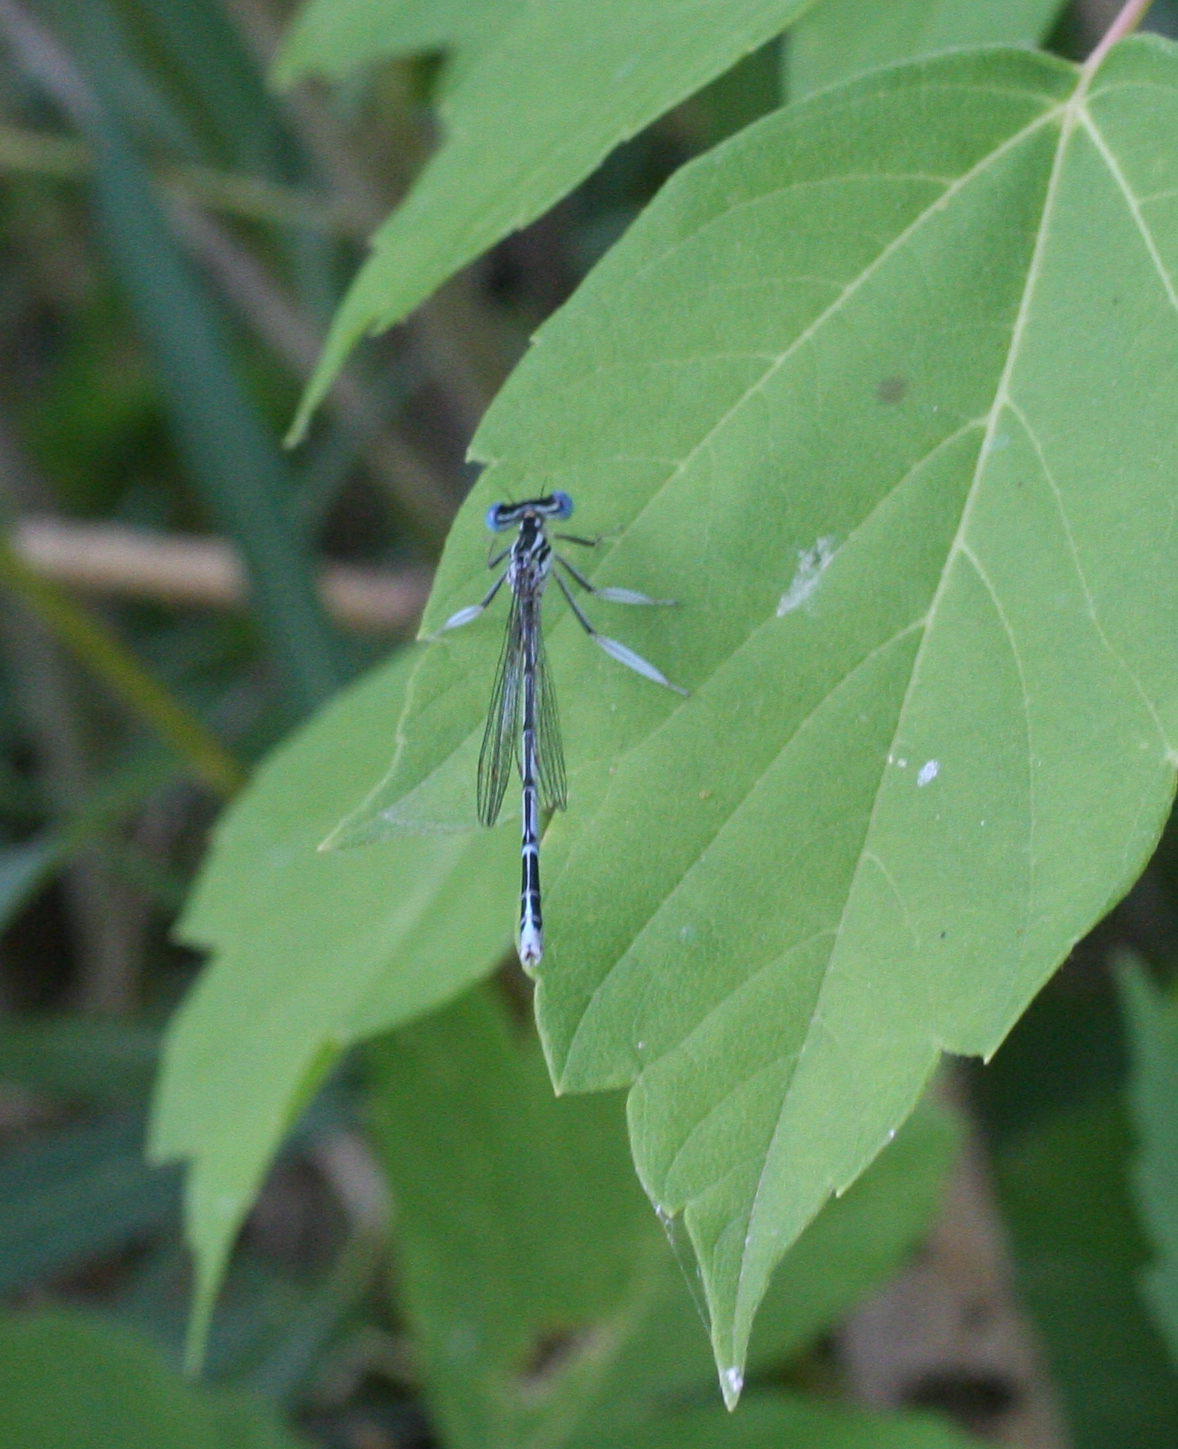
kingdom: Animalia
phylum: Arthropoda
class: Insecta
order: Odonata
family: Platycnemididae
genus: Platycnemis
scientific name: Platycnemis pennipes
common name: White-legged damselfly
